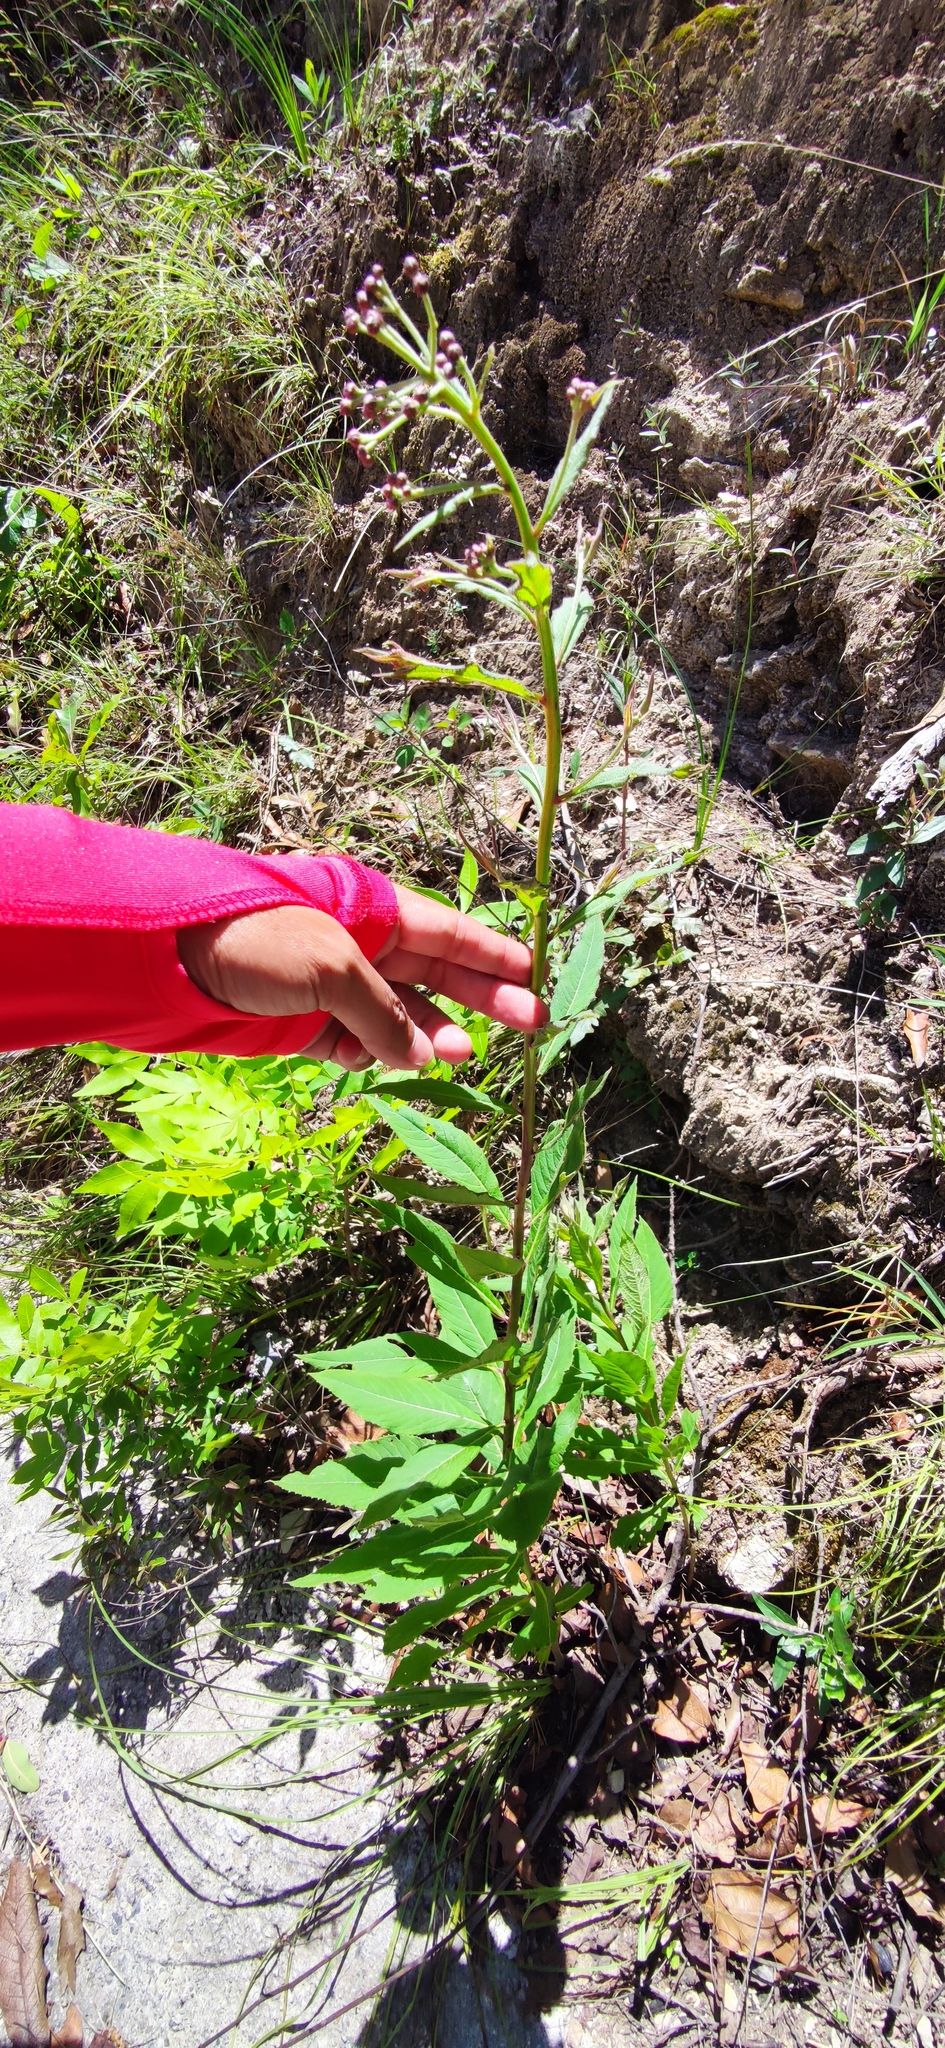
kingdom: Plantae
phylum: Tracheophyta
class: Magnoliopsida
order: Asterales
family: Asteraceae
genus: Vernonia
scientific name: Vernonia greggii
